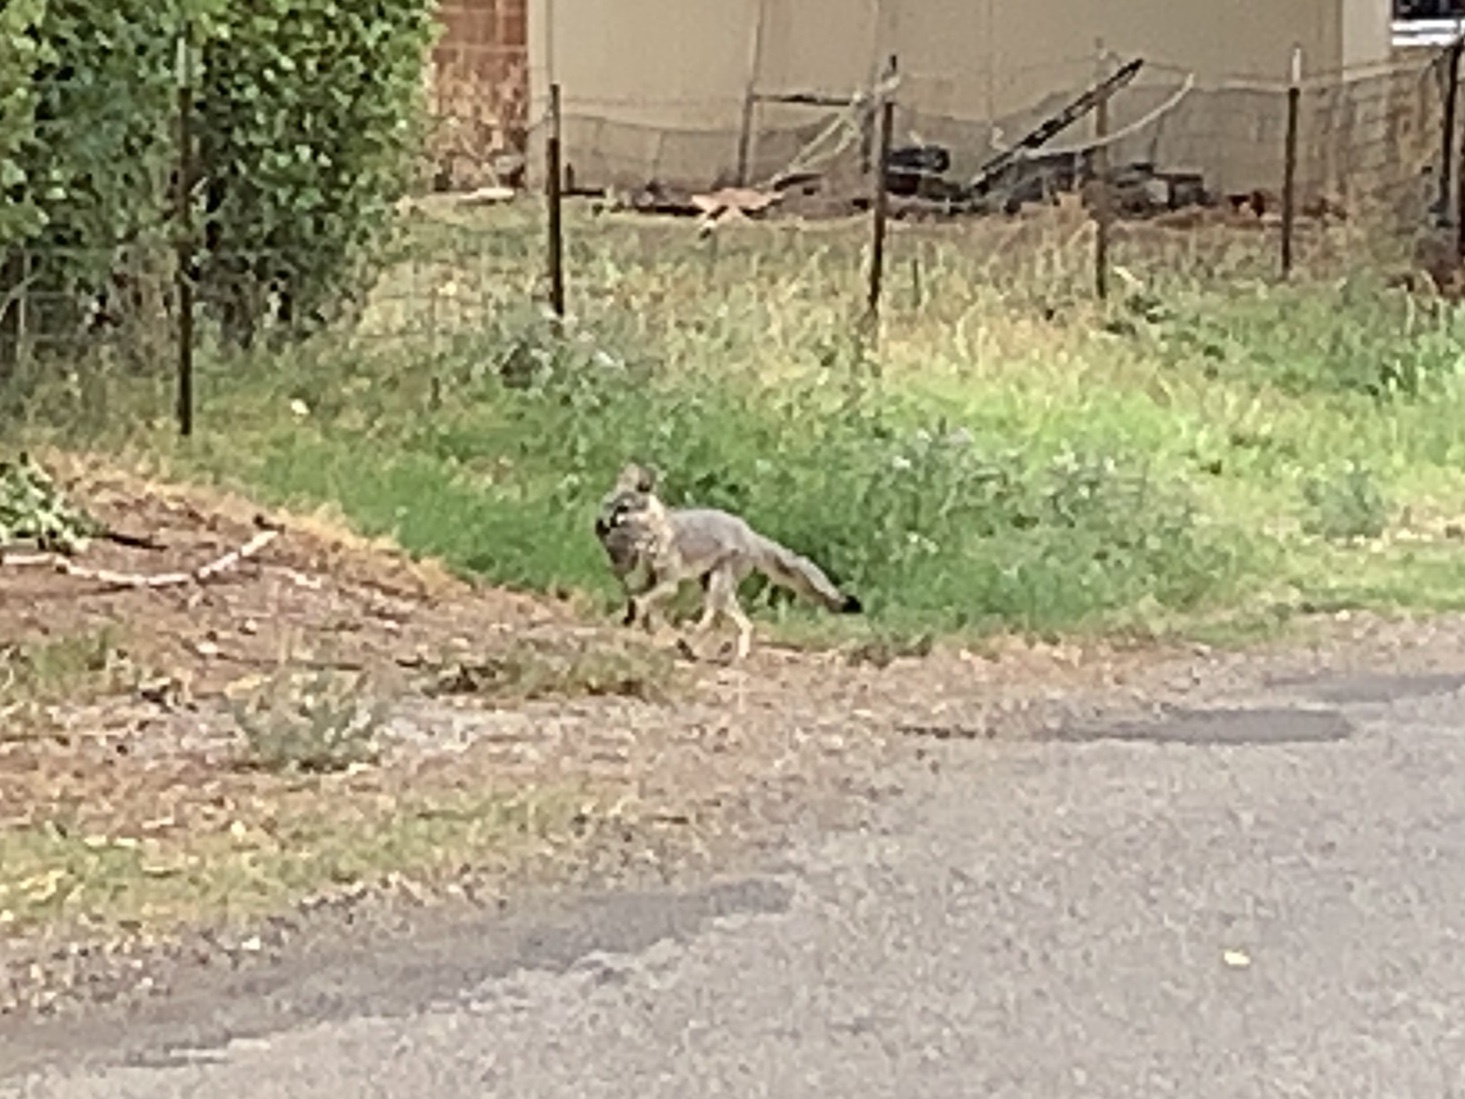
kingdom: Animalia
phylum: Chordata
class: Mammalia
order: Carnivora
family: Canidae
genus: Urocyon
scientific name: Urocyon cinereoargenteus
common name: Gray fox
